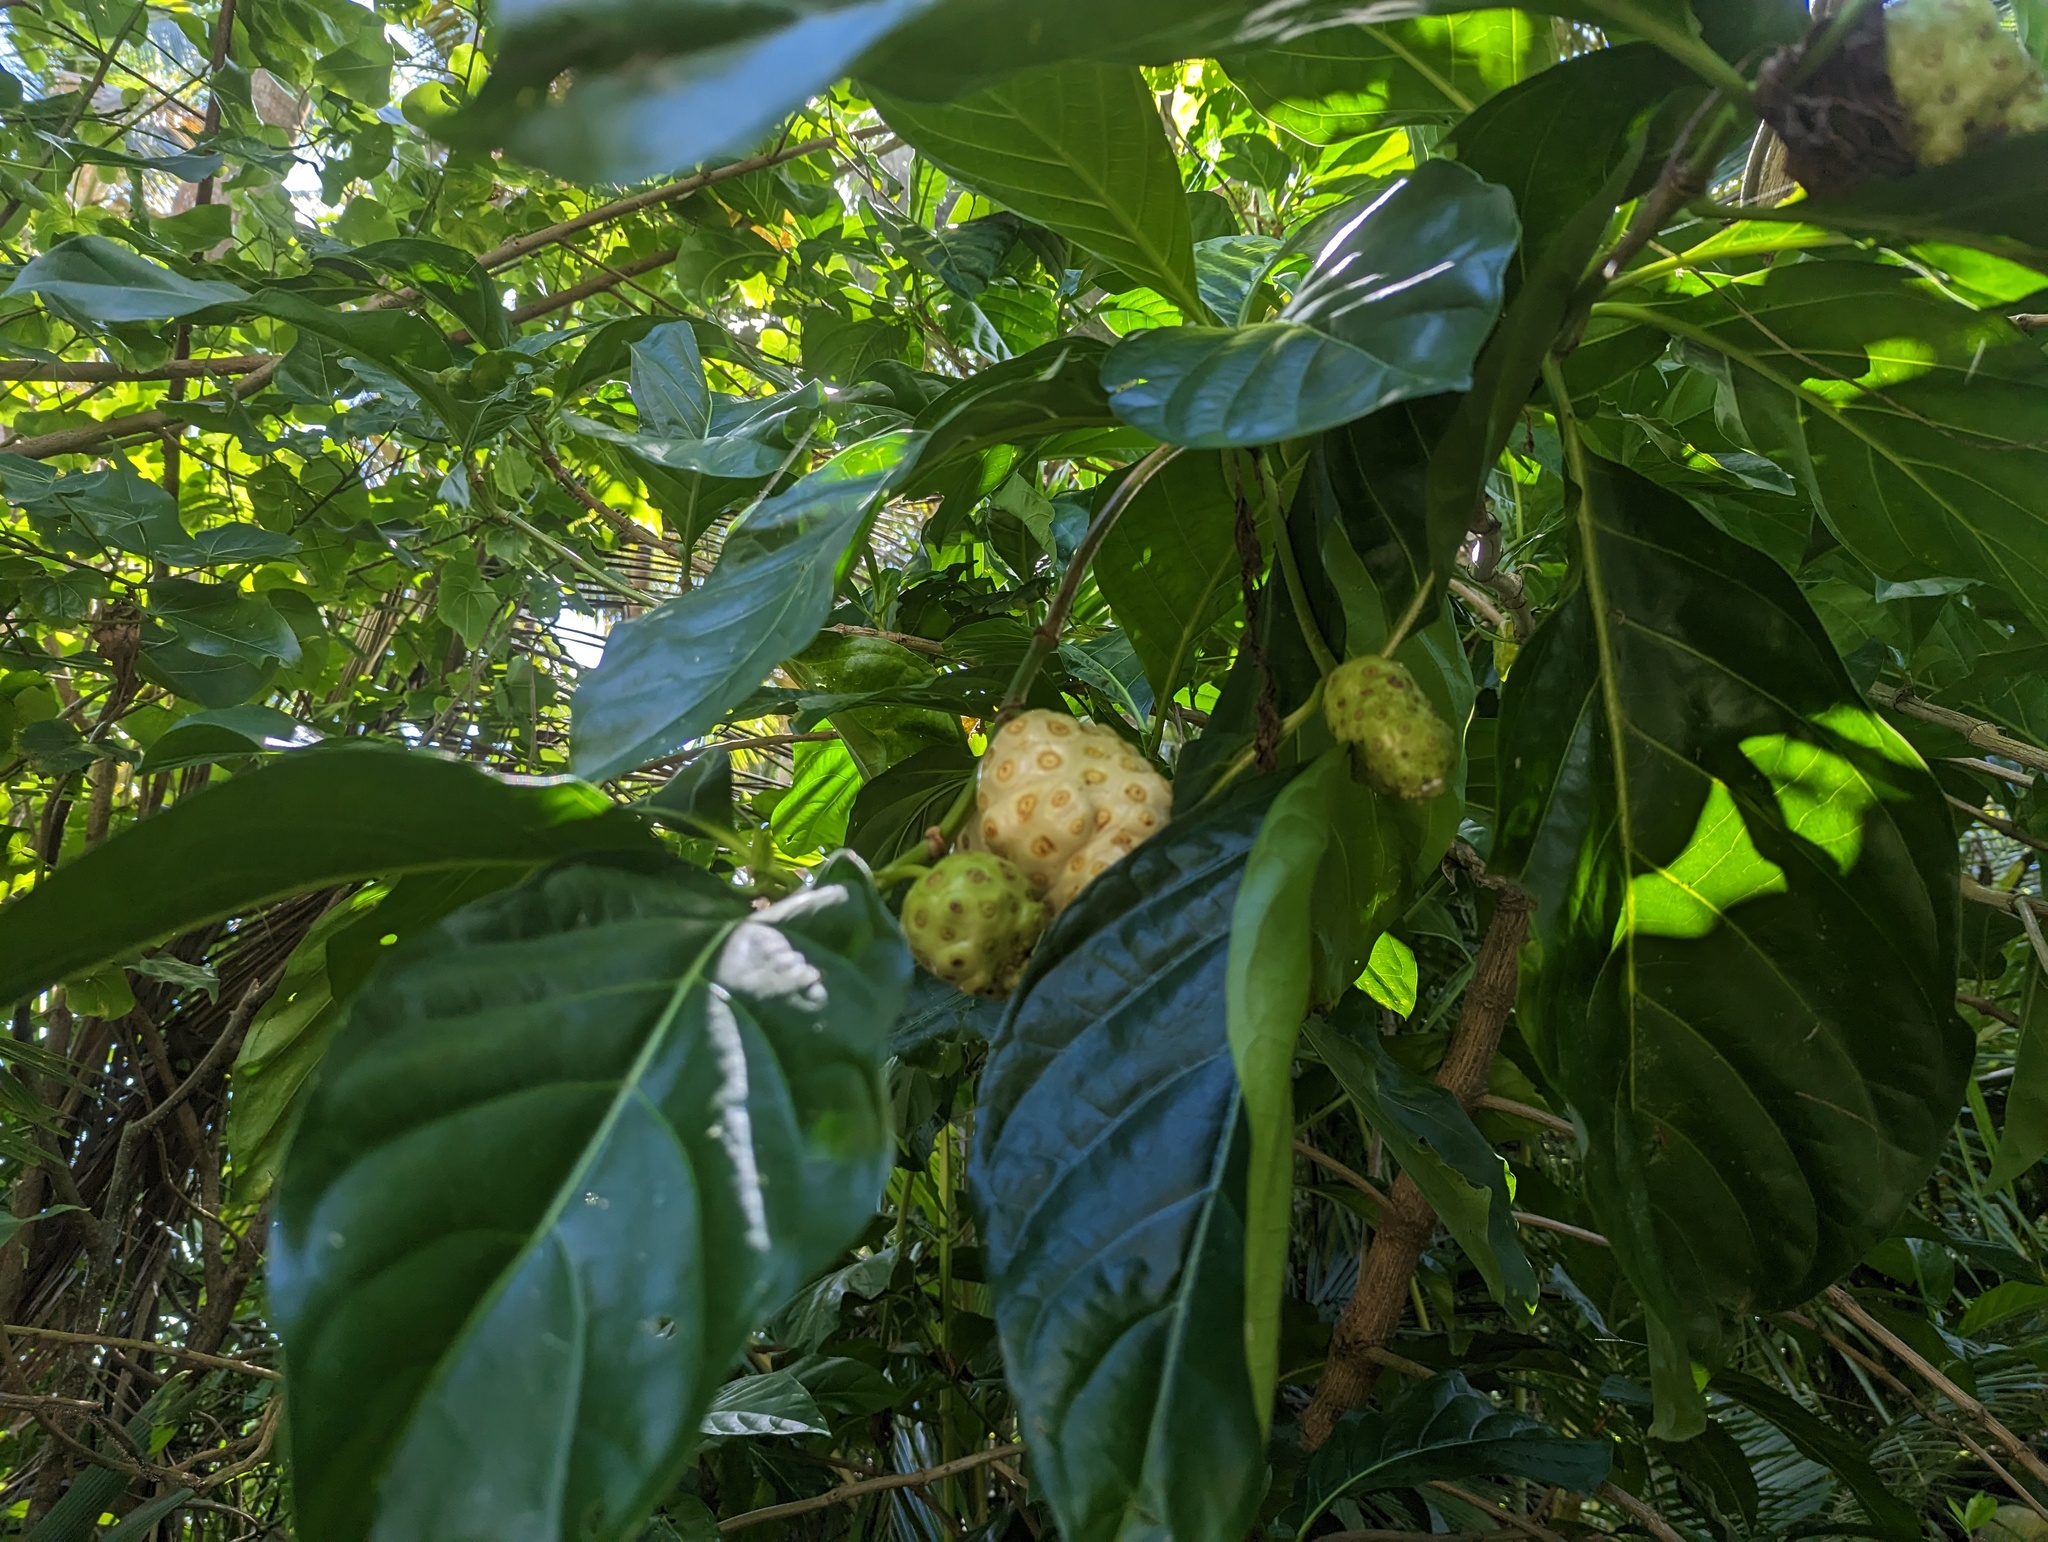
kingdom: Plantae
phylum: Tracheophyta
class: Magnoliopsida
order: Gentianales
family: Rubiaceae
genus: Morinda
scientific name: Morinda citrifolia
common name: Indian-mulberry
